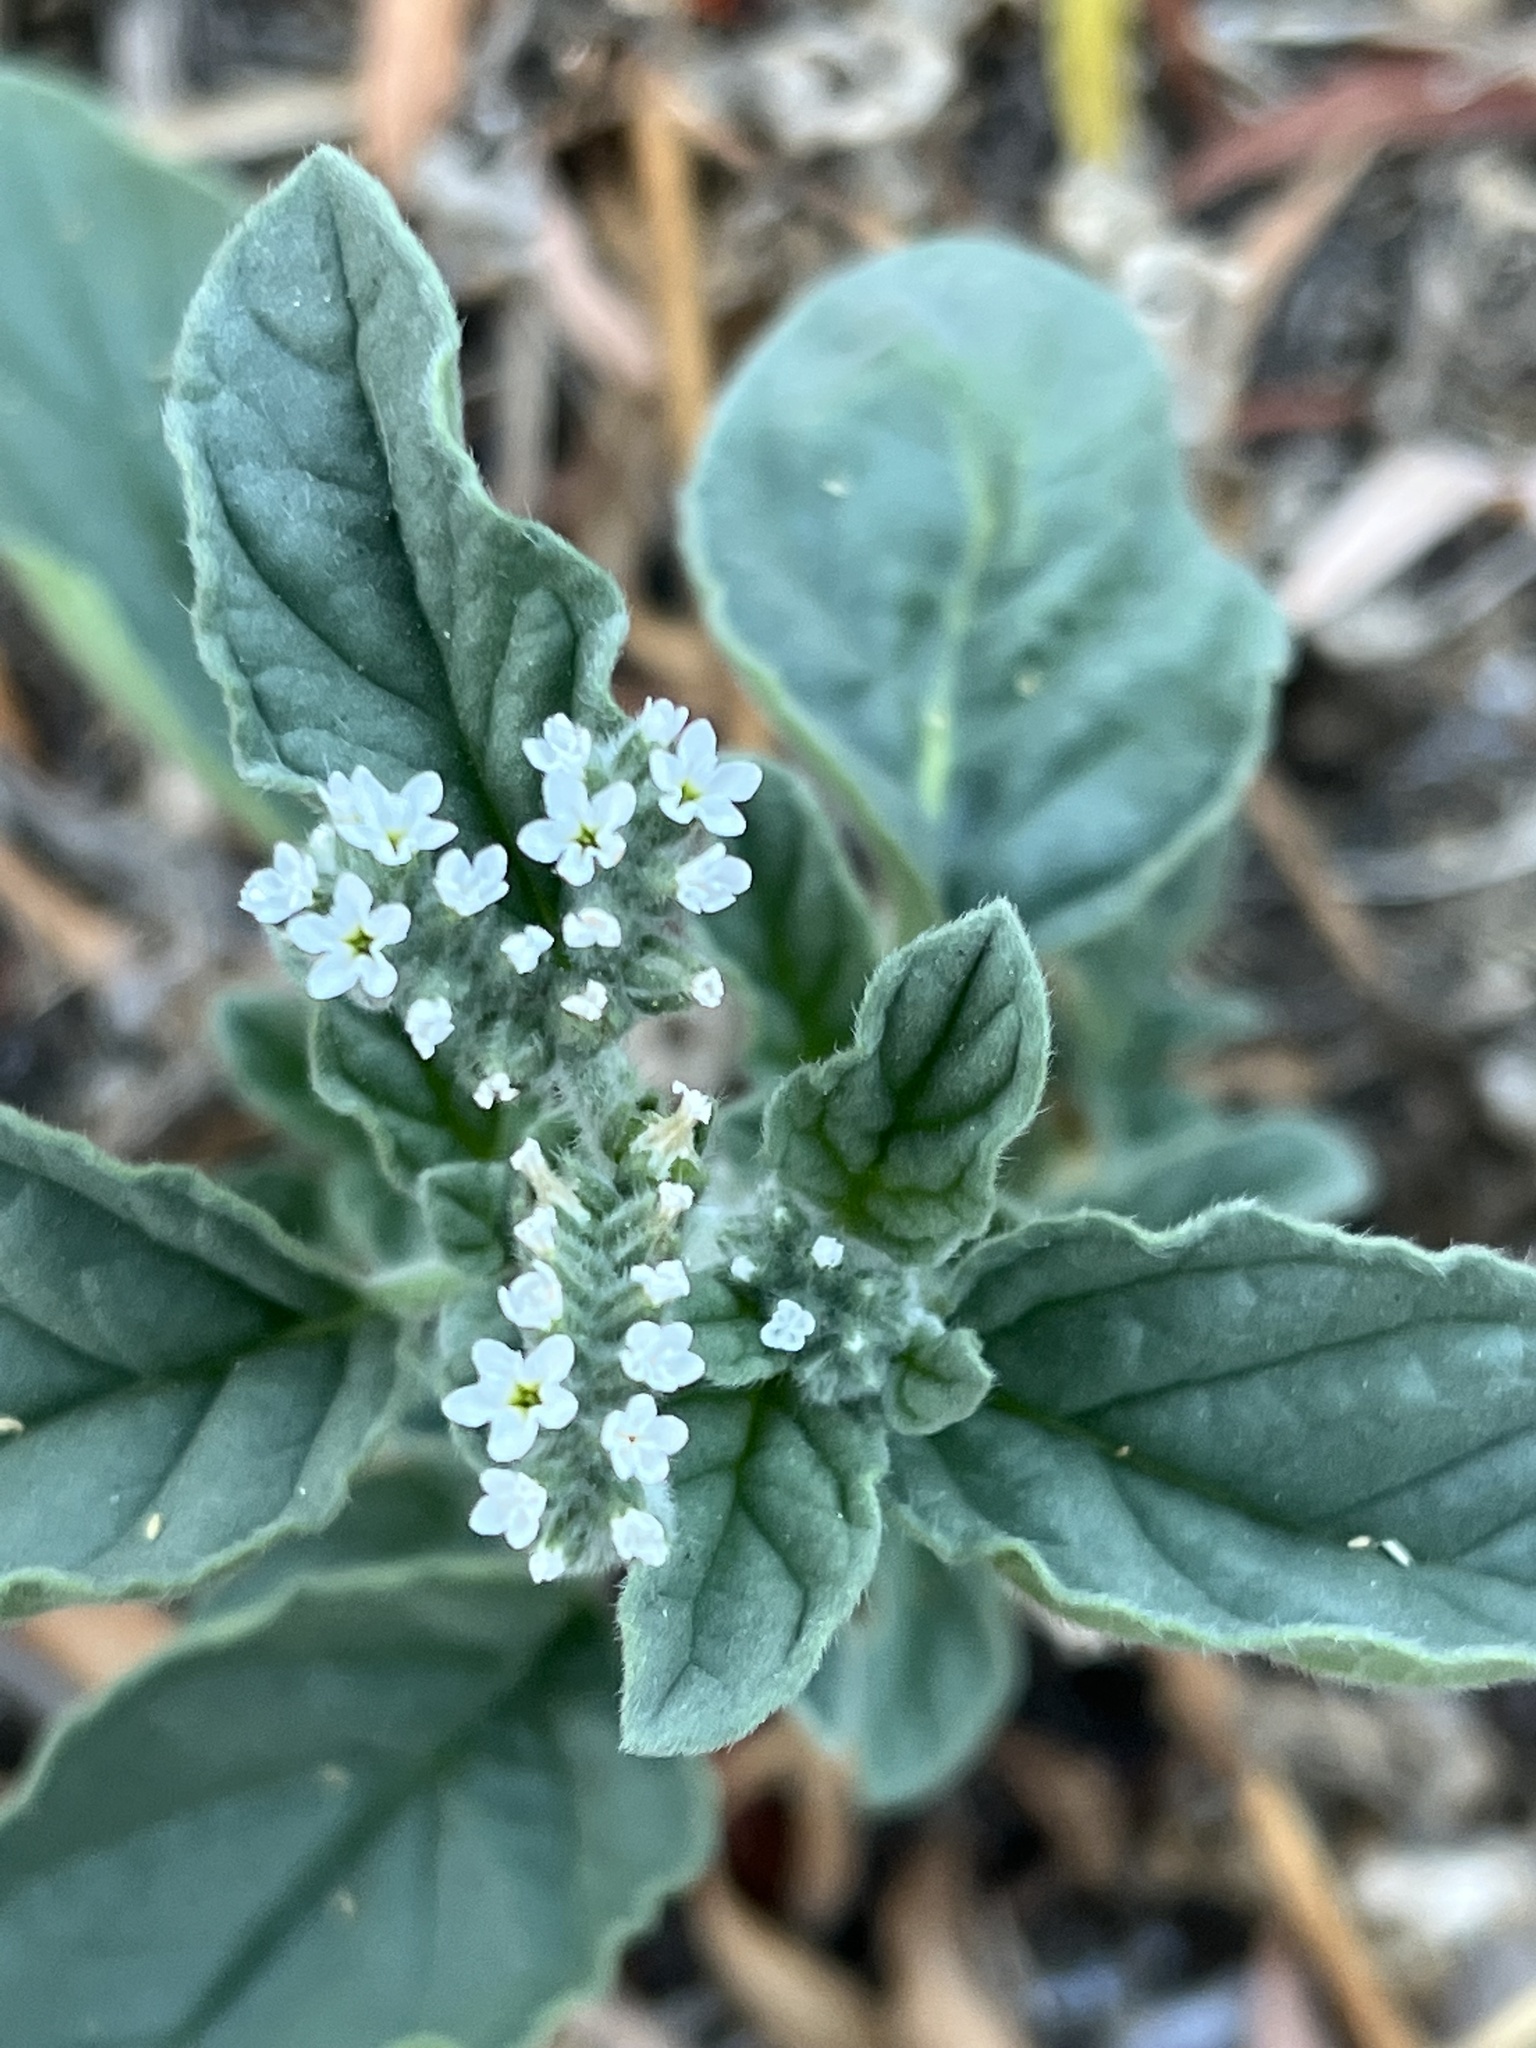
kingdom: Plantae
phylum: Tracheophyta
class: Magnoliopsida
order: Boraginales
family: Heliotropiaceae
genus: Heliotropium
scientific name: Heliotropium europaeum
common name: European heliotrope
